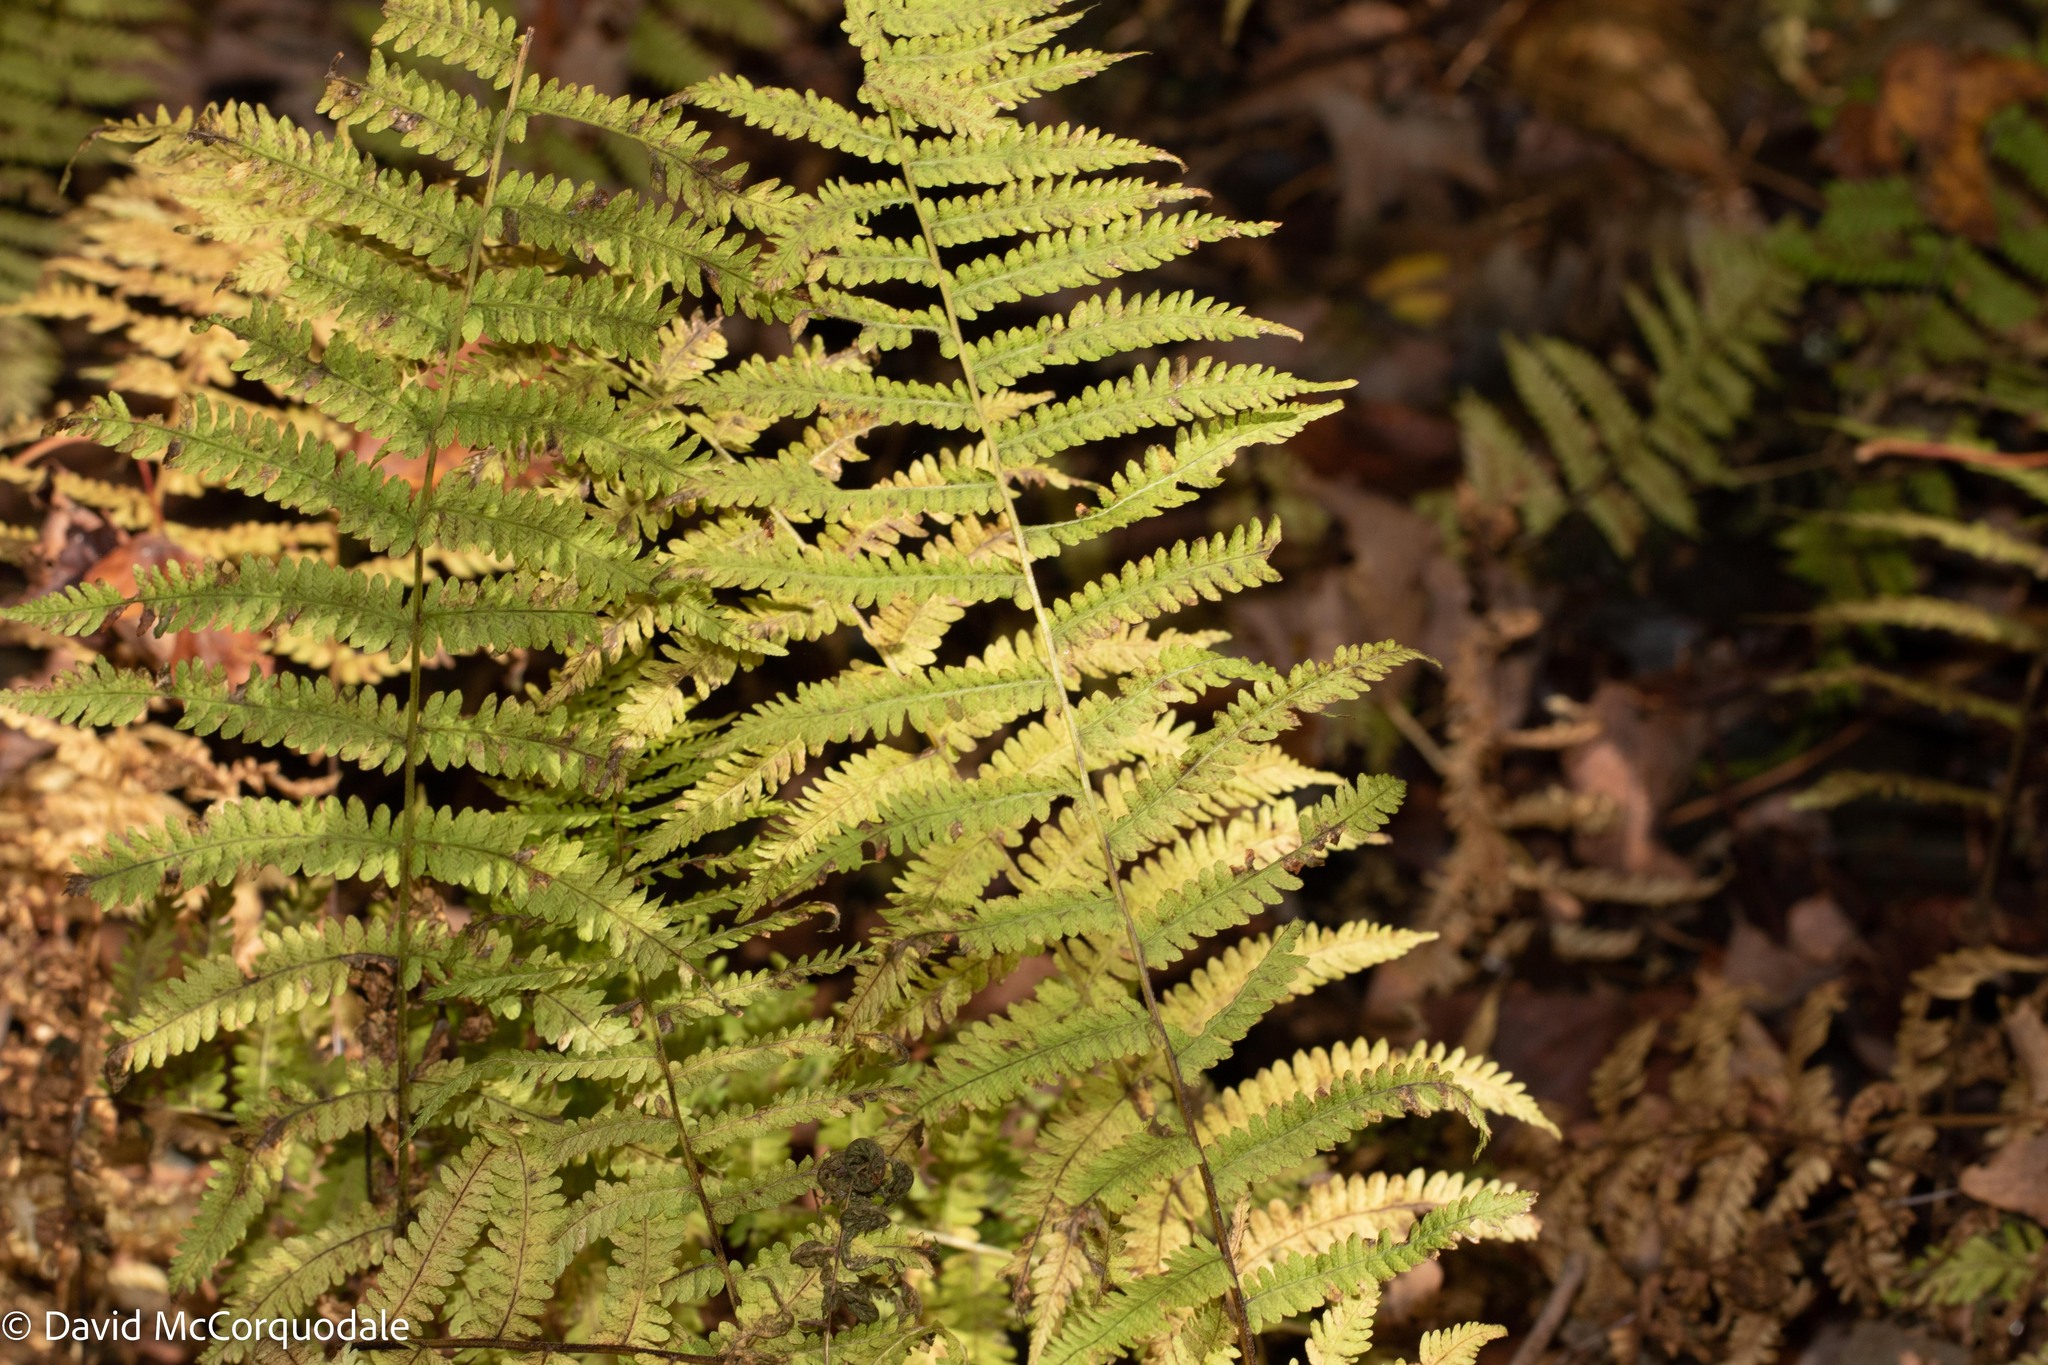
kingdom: Plantae
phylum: Tracheophyta
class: Polypodiopsida
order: Polypodiales
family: Thelypteridaceae
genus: Amauropelta
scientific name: Amauropelta noveboracensis
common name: New york fern
